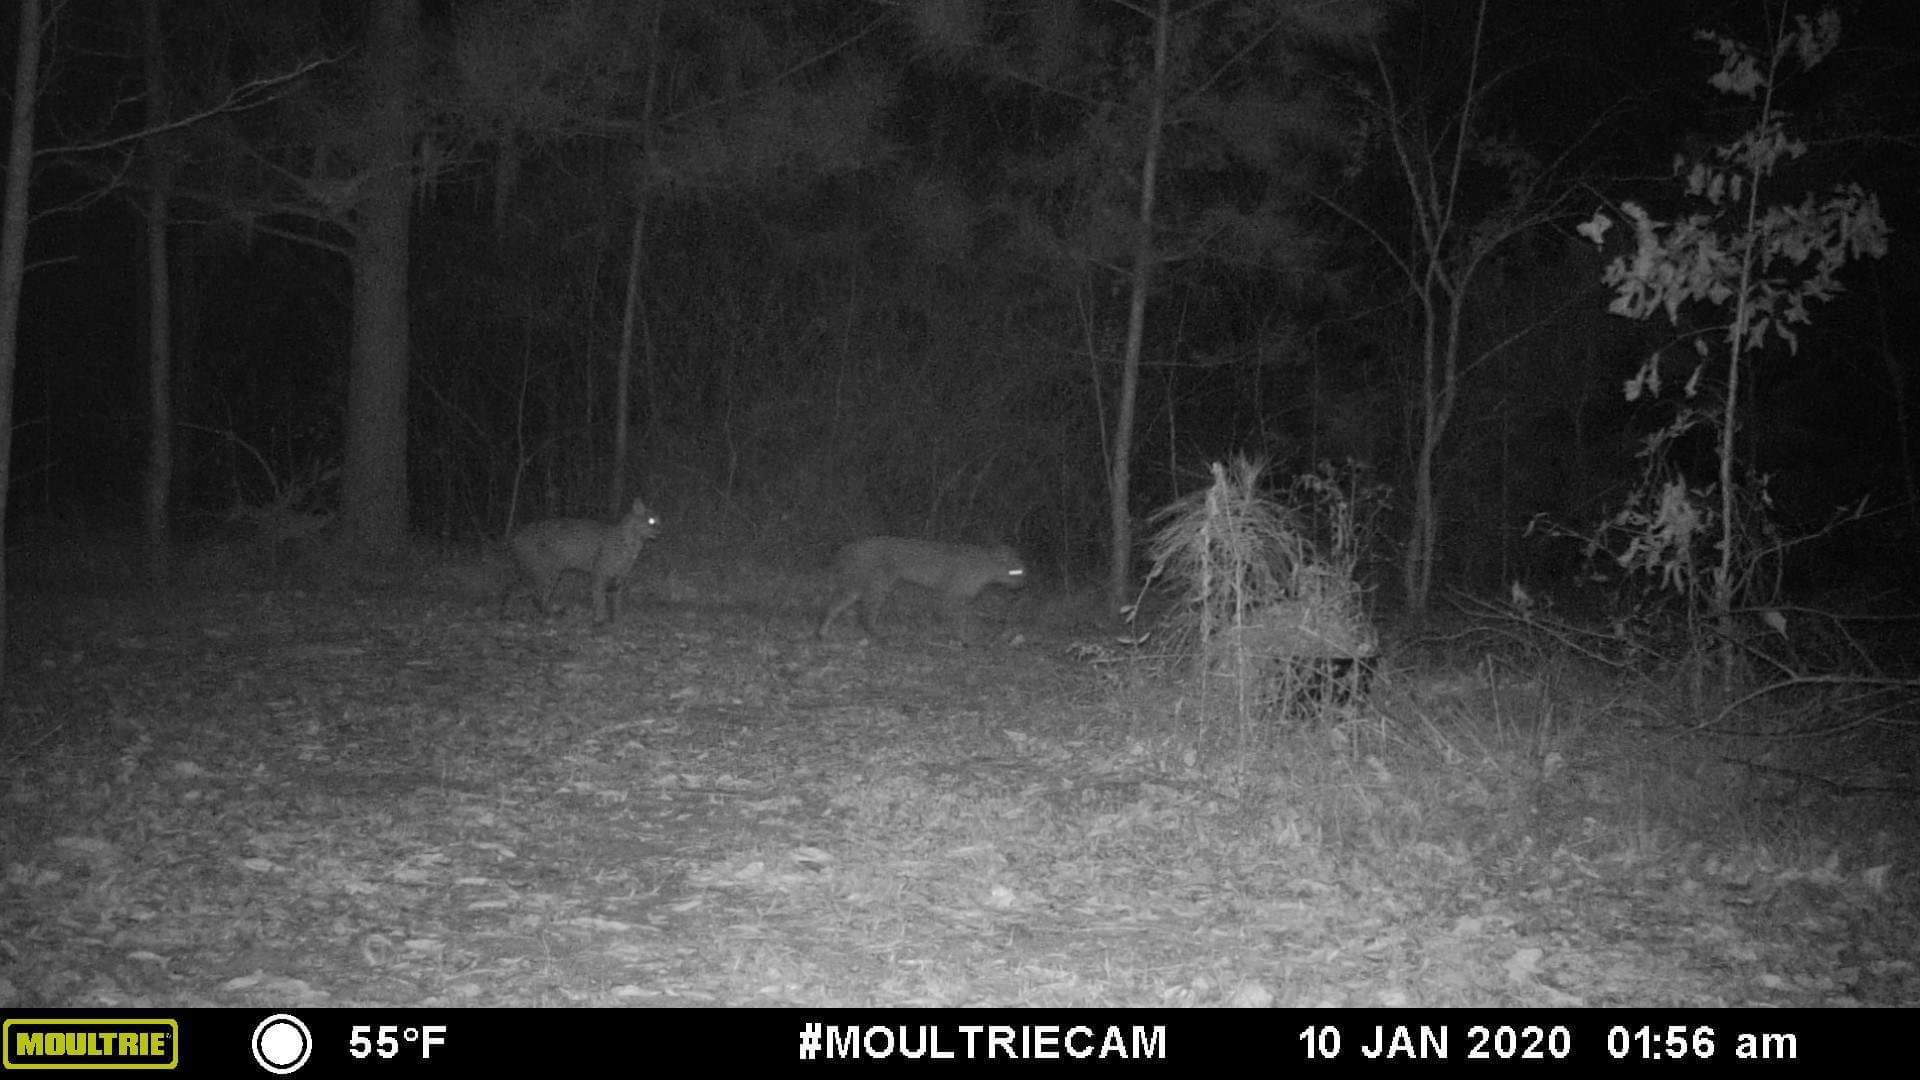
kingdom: Animalia
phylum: Chordata
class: Mammalia
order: Carnivora
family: Felidae
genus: Lynx
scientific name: Lynx rufus
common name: Bobcat
